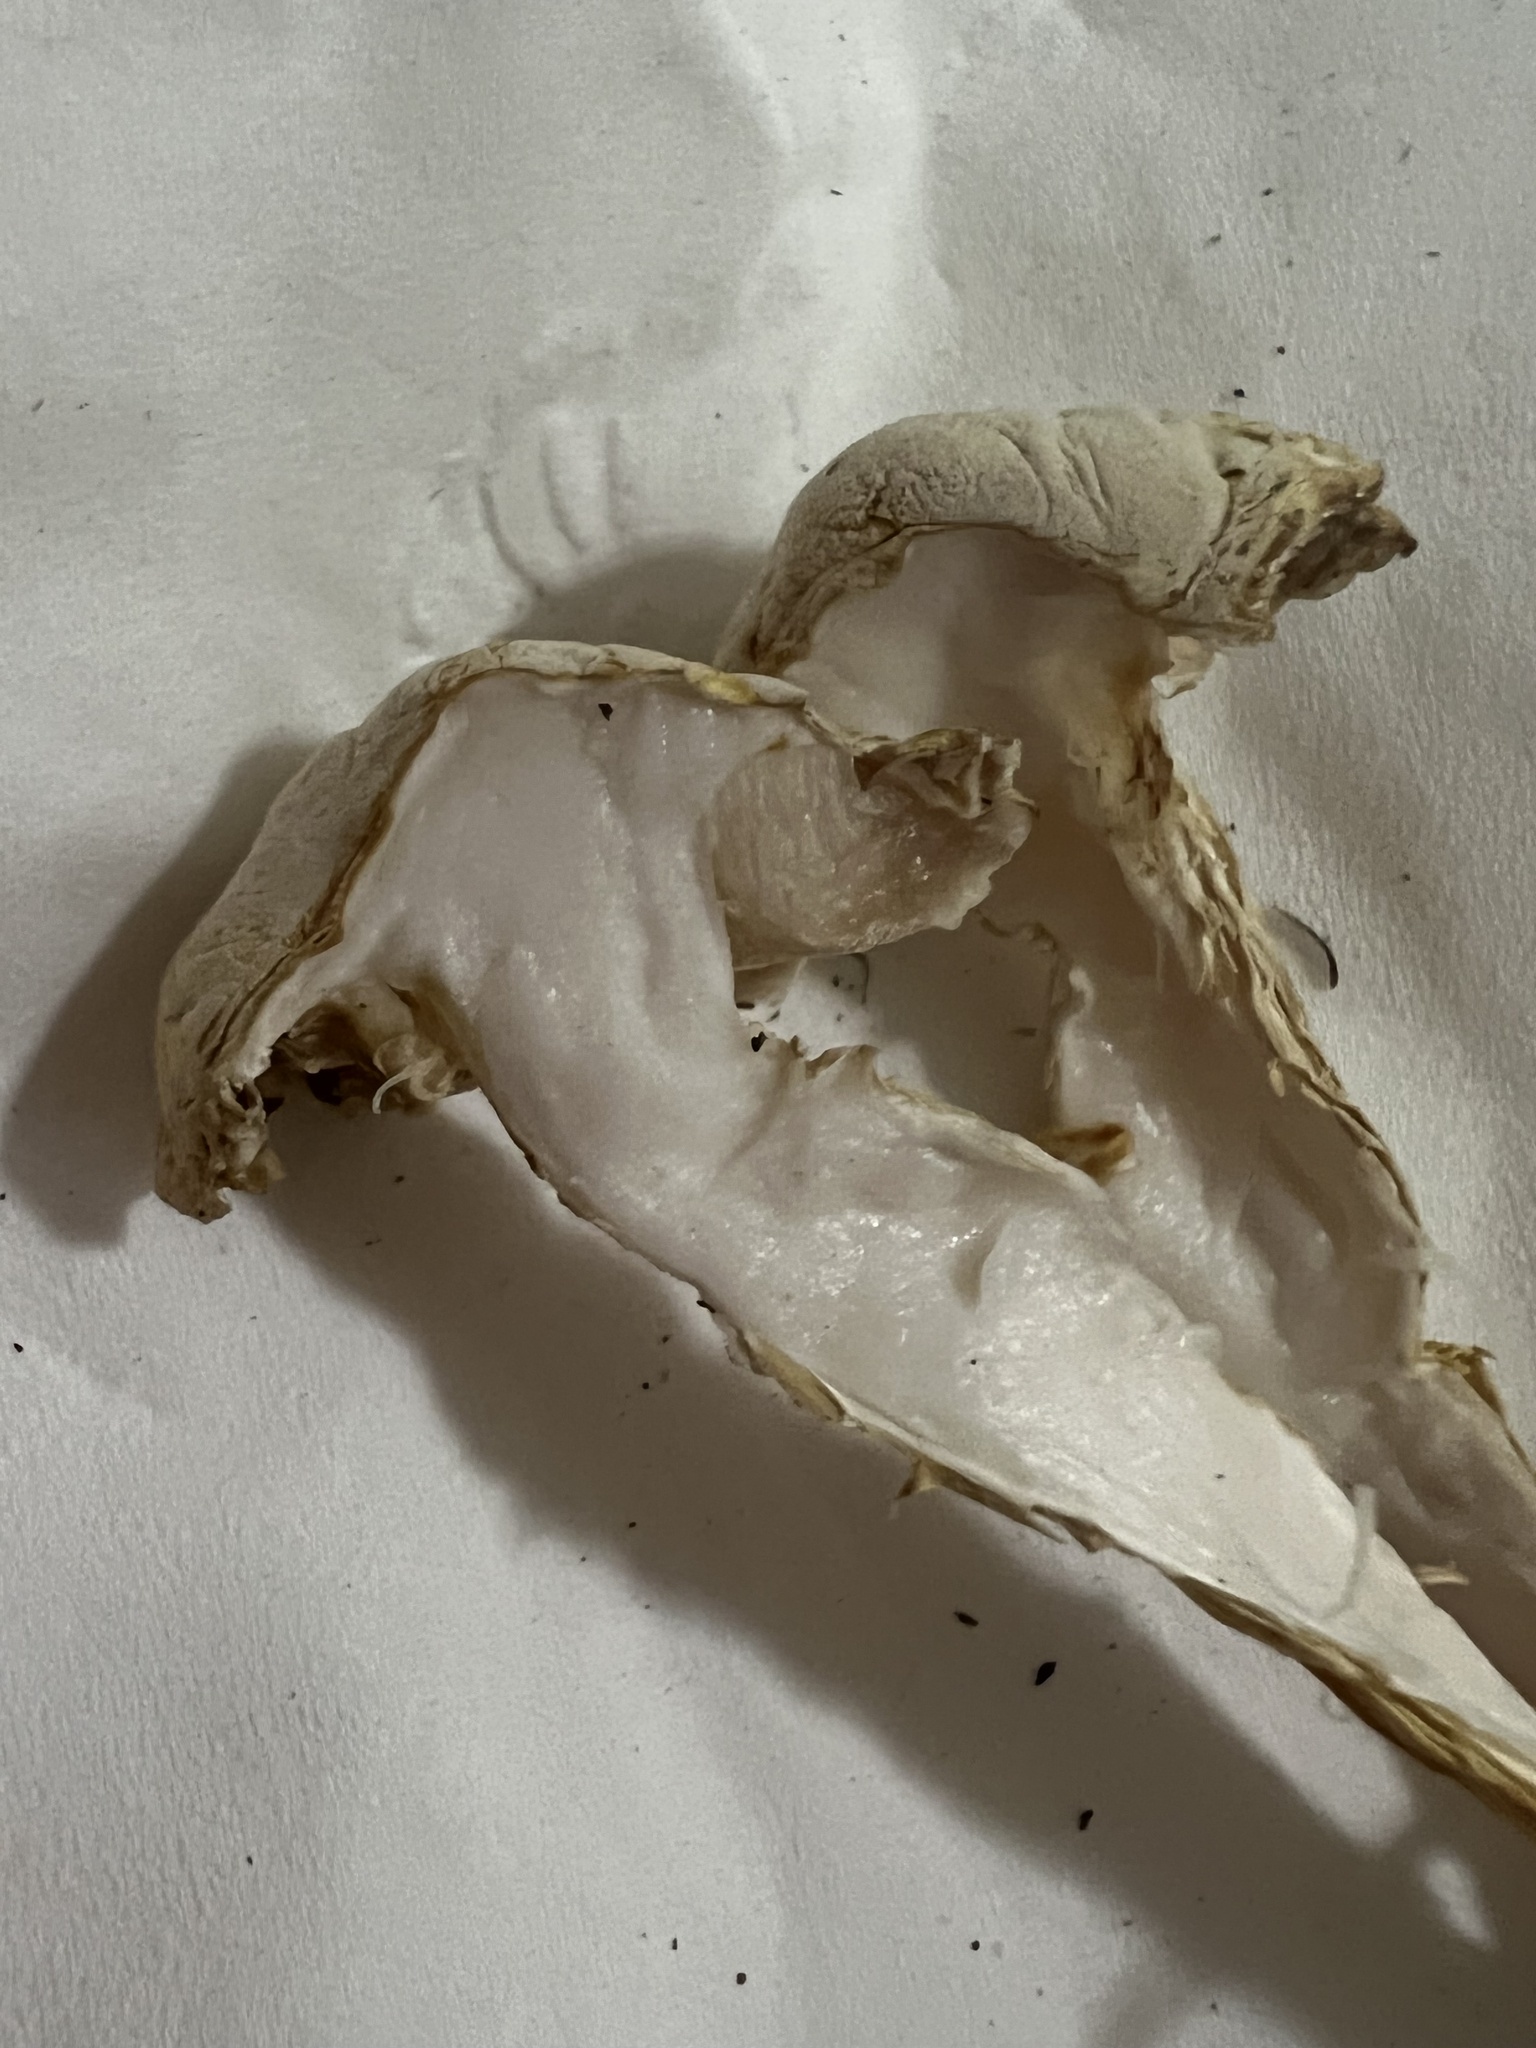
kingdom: Fungi
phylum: Basidiomycota
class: Agaricomycetes
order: Boletales
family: Boletaceae
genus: Austroboletus
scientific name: Austroboletus subflavidus
